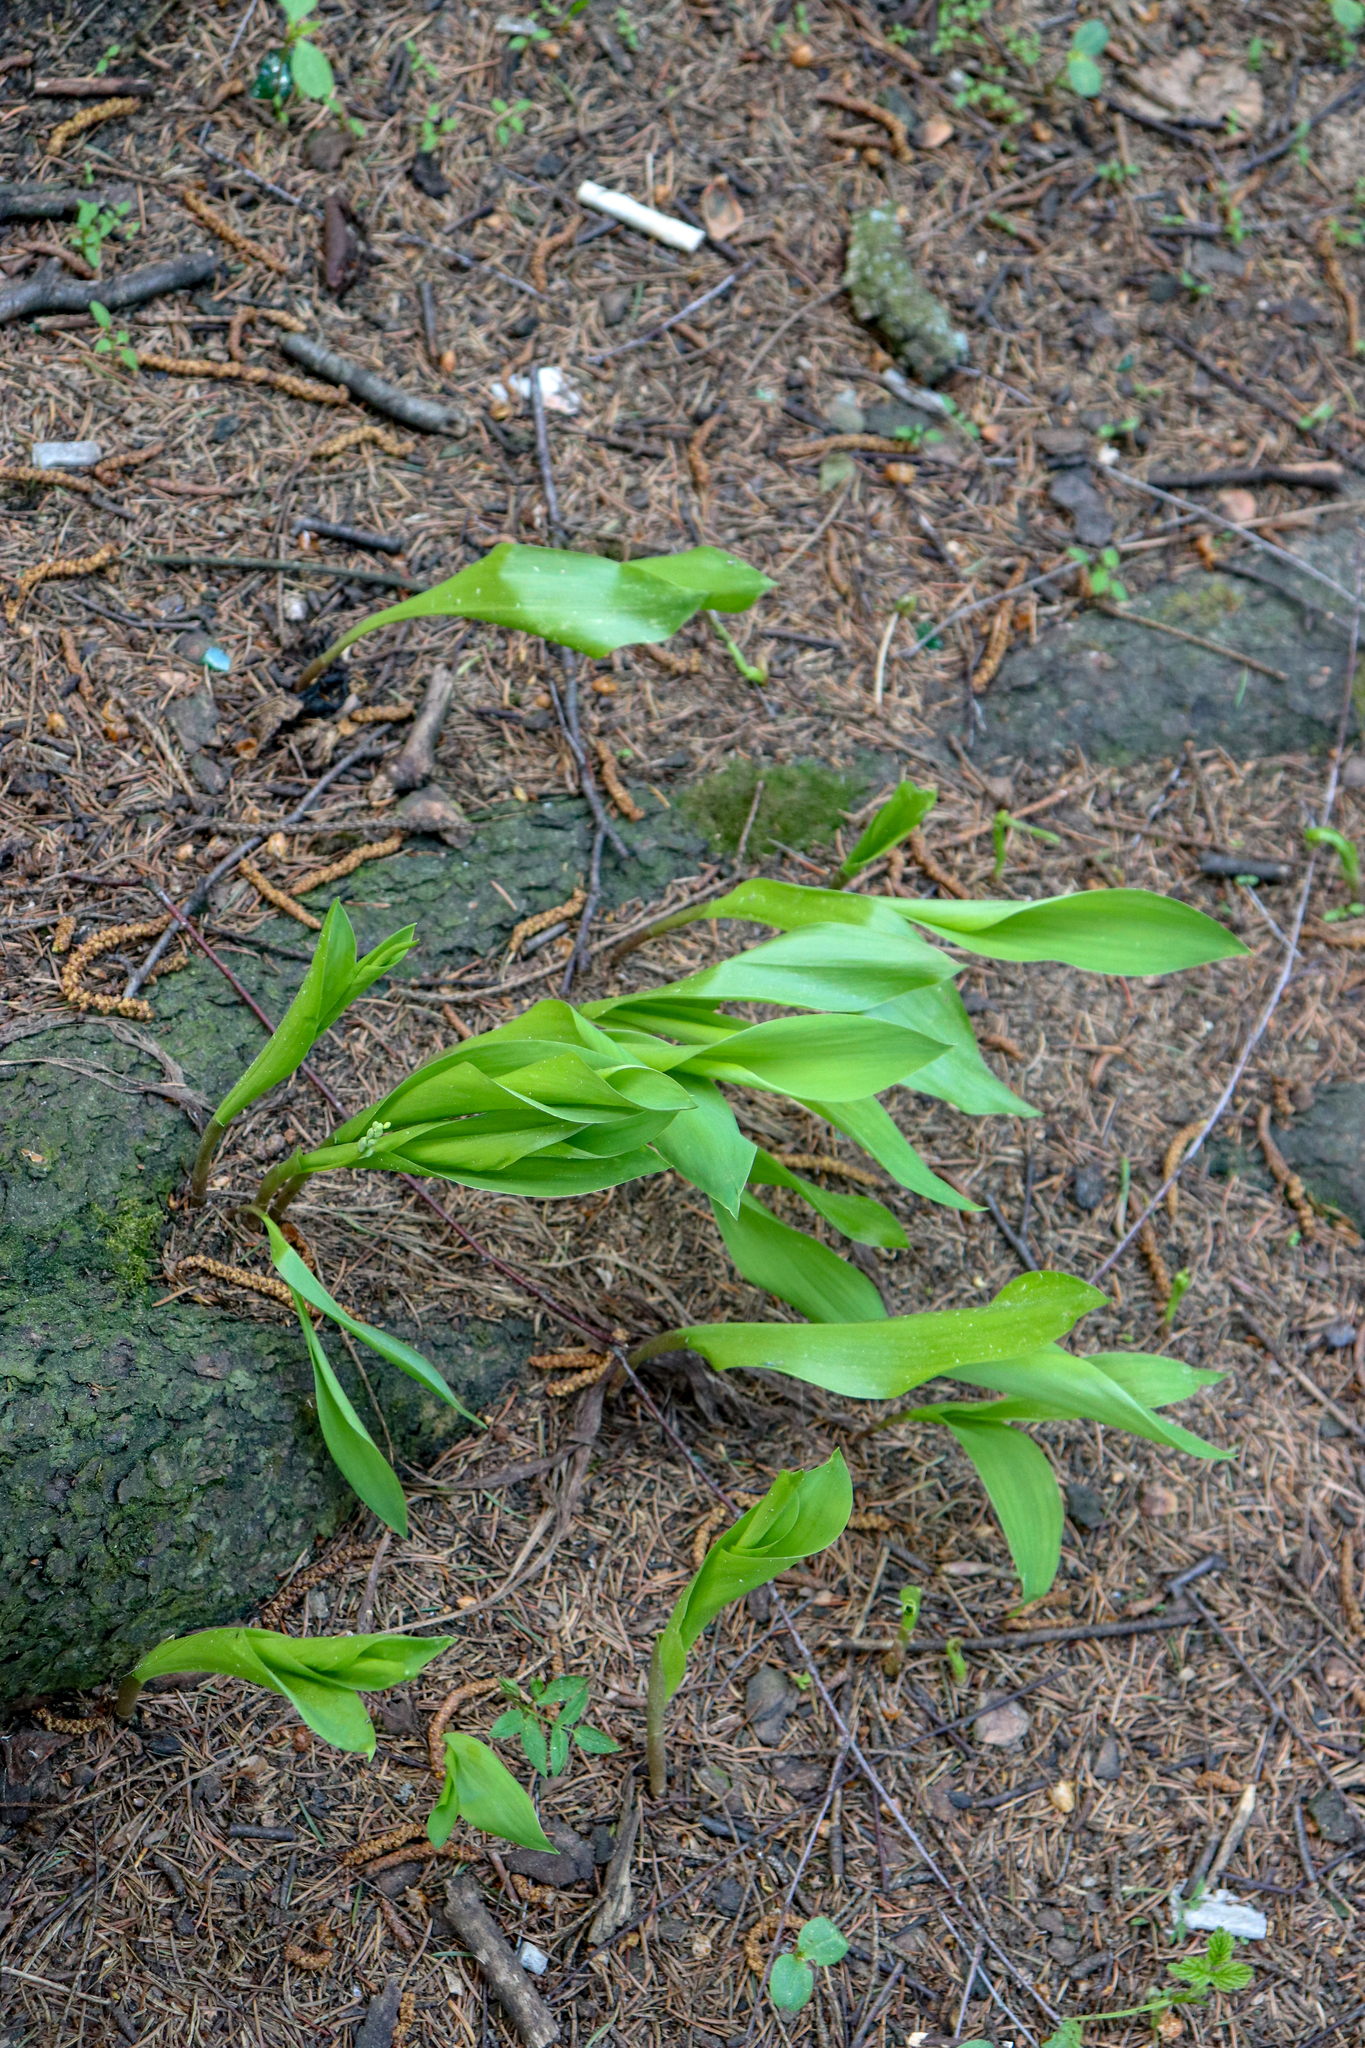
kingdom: Plantae
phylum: Tracheophyta
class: Liliopsida
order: Asparagales
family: Asparagaceae
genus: Convallaria
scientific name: Convallaria majalis
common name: Lily-of-the-valley
